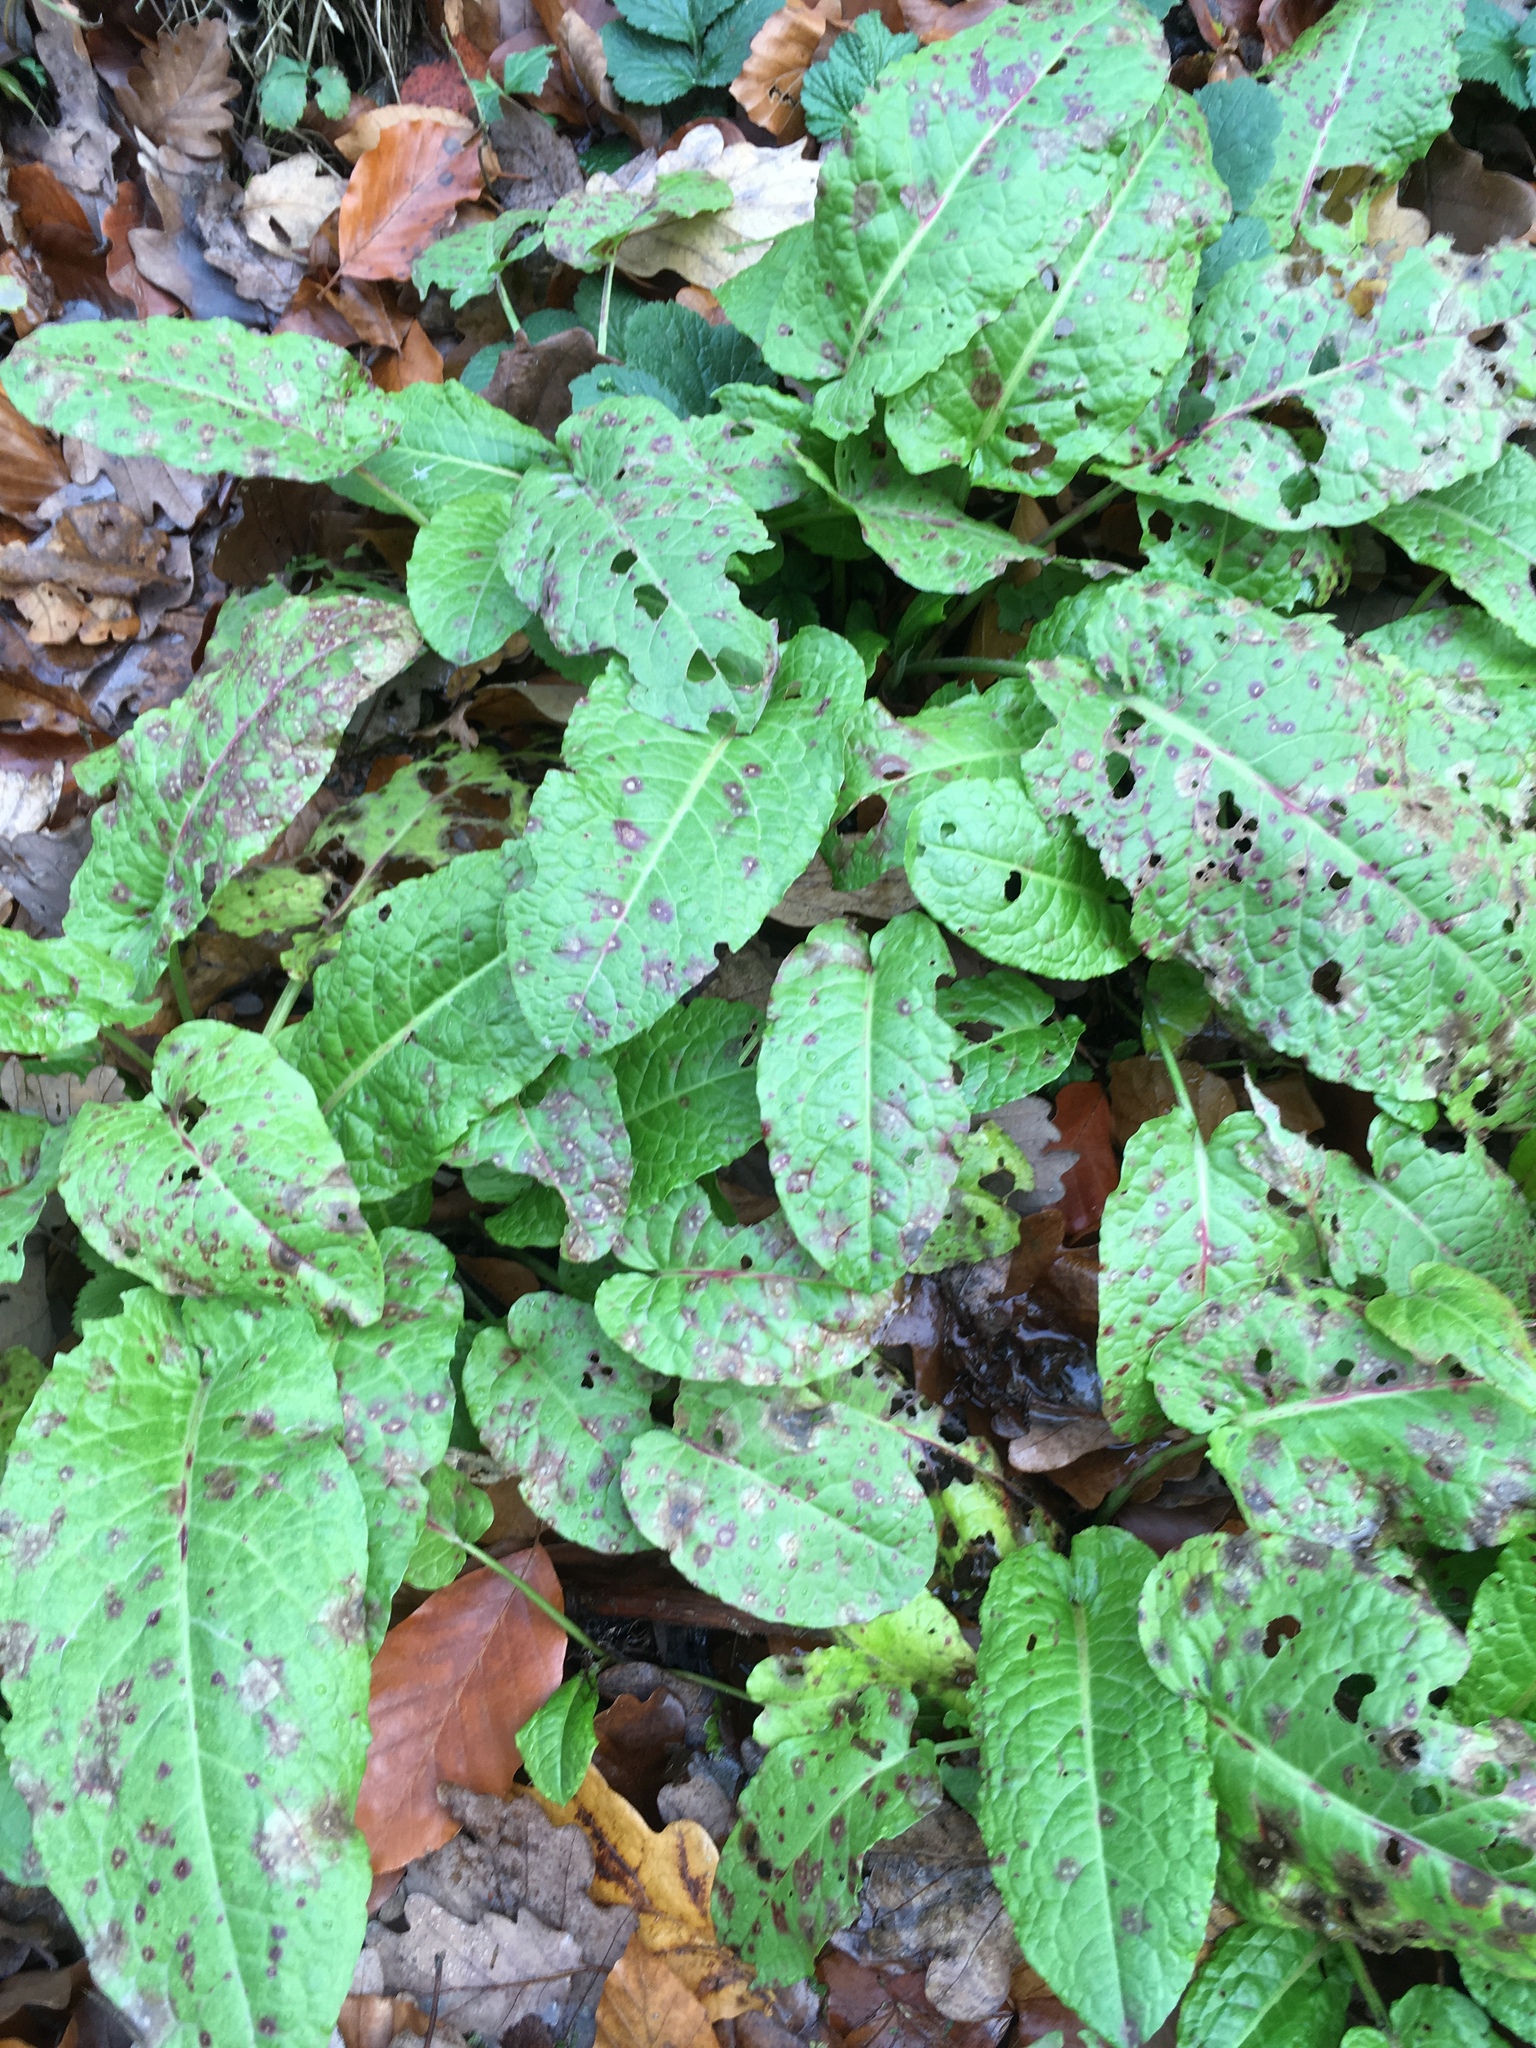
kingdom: Plantae
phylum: Tracheophyta
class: Magnoliopsida
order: Caryophyllales
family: Polygonaceae
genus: Rumex
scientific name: Rumex obtusifolius
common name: Bitter dock
